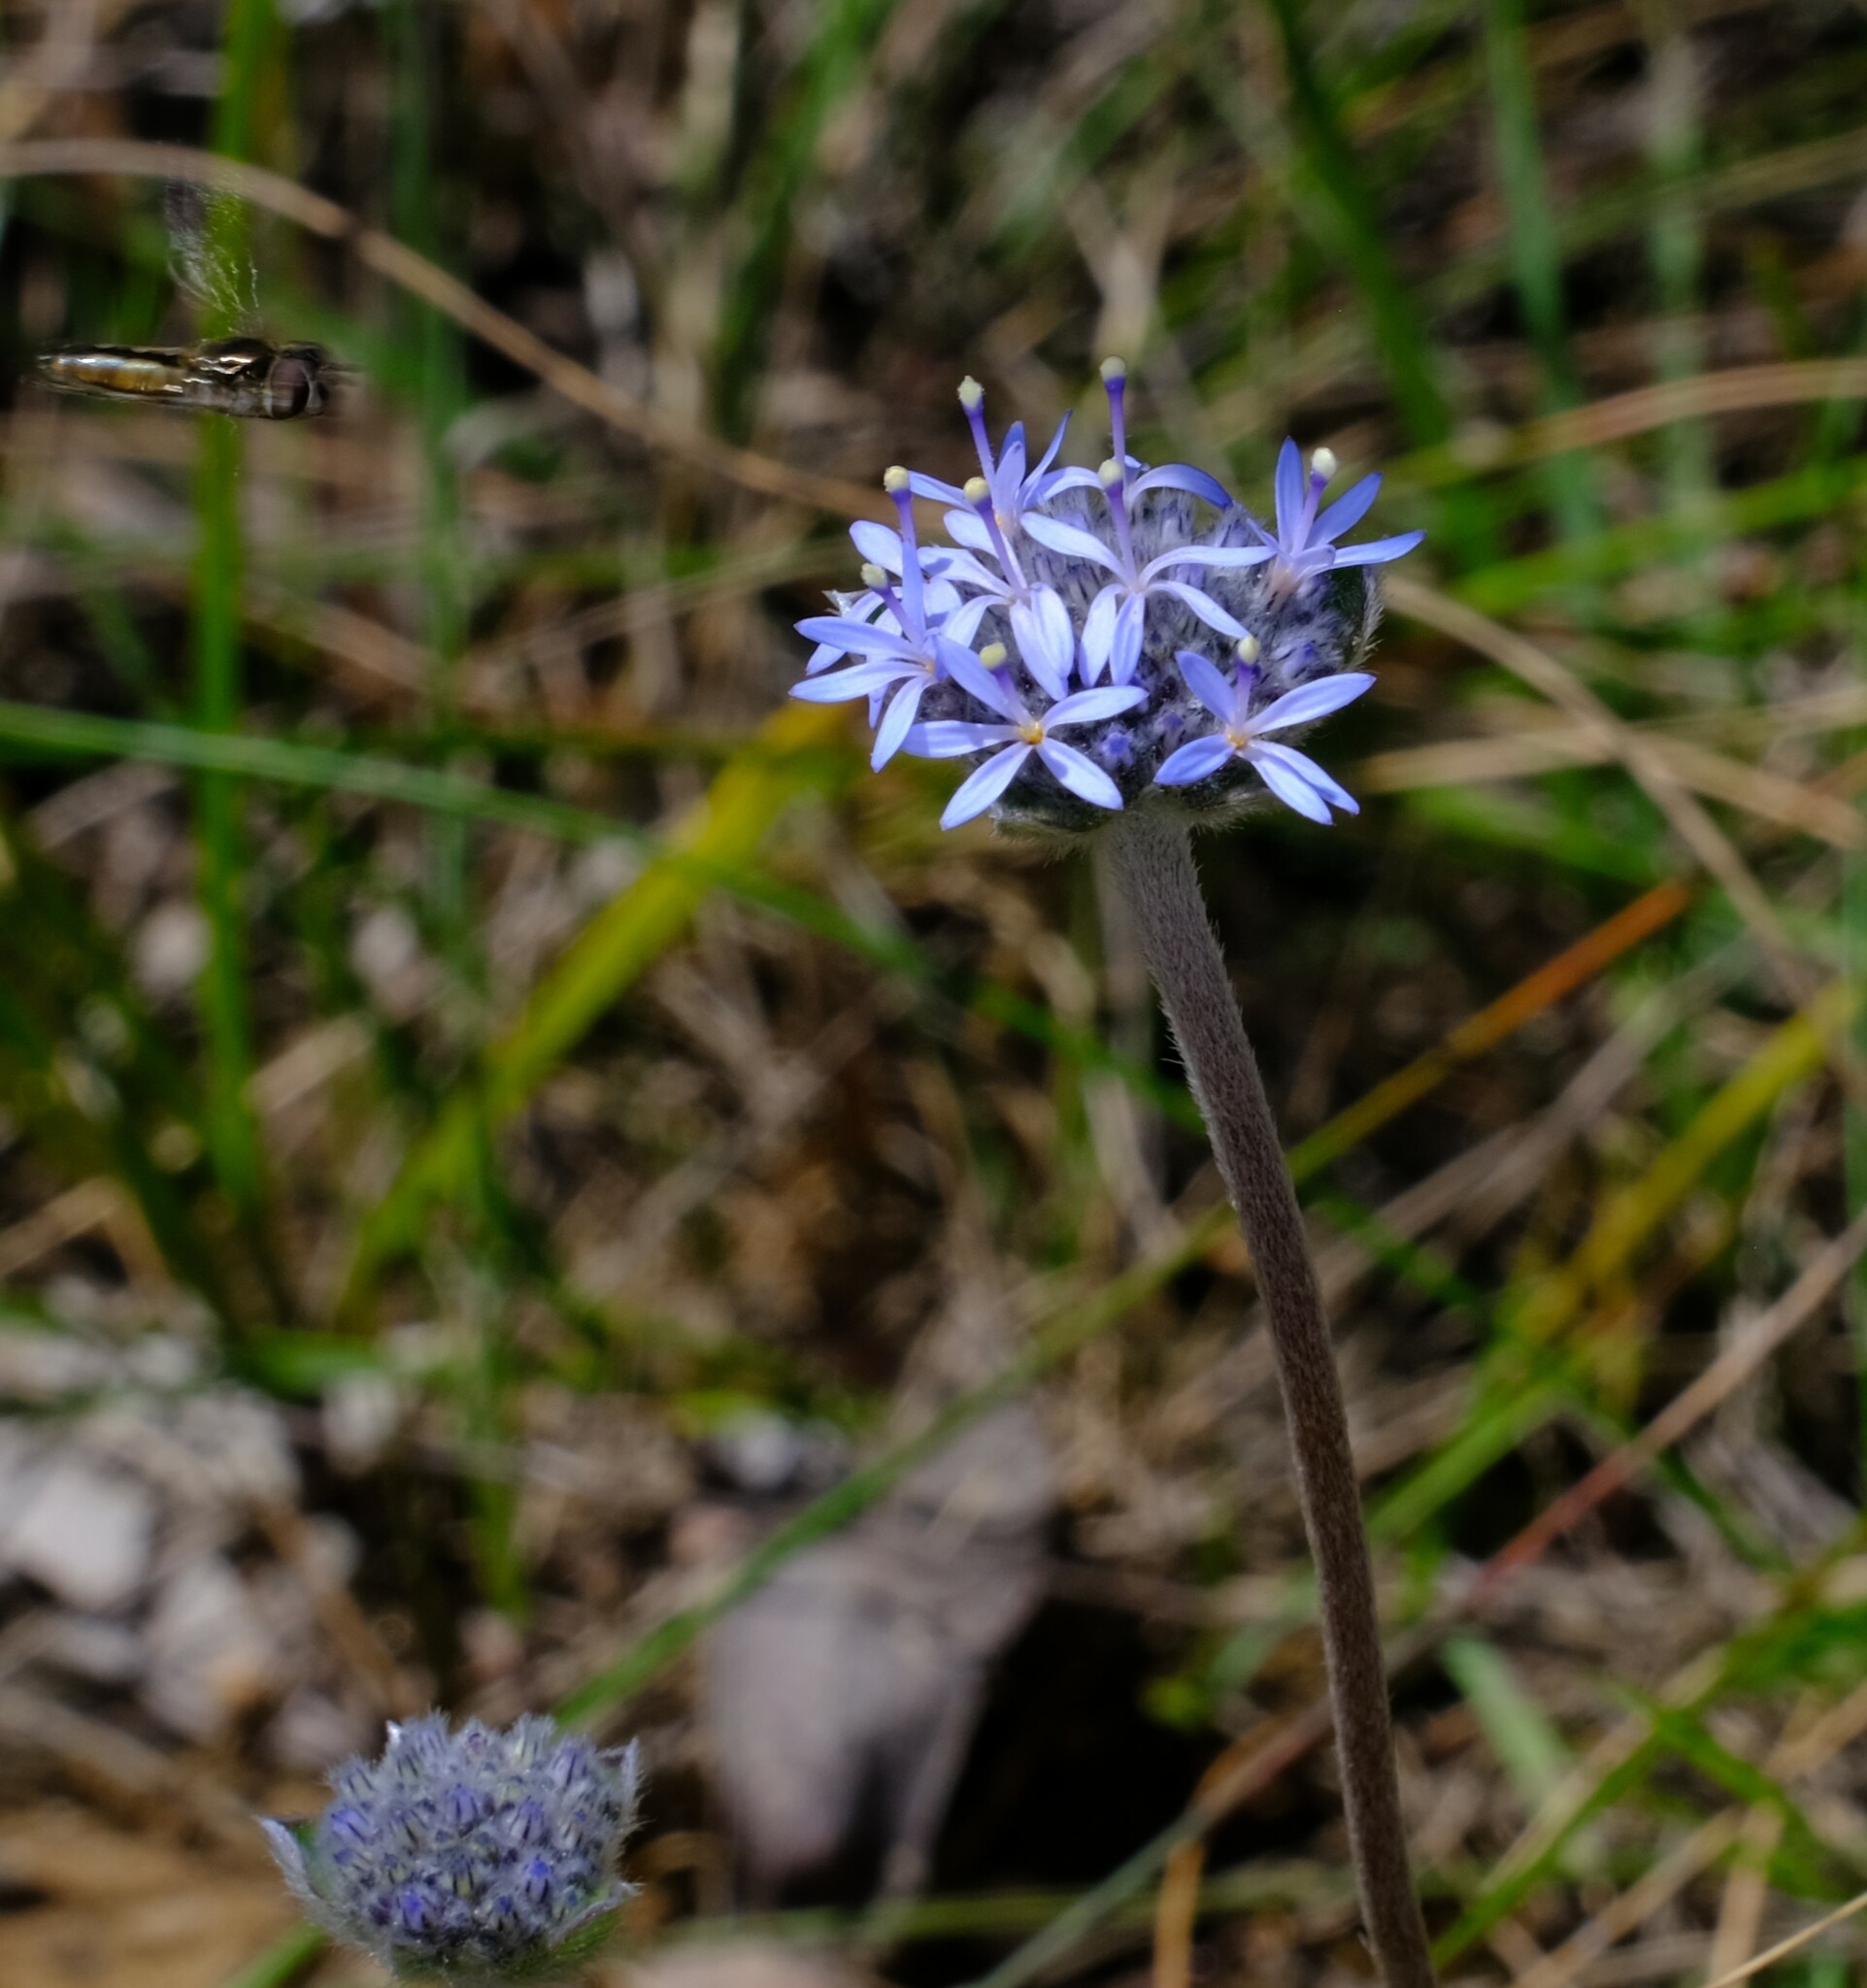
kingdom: Plantae
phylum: Tracheophyta
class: Magnoliopsida
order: Asterales
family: Goodeniaceae
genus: Brunonia
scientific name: Brunonia australis
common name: Blue pincushion
